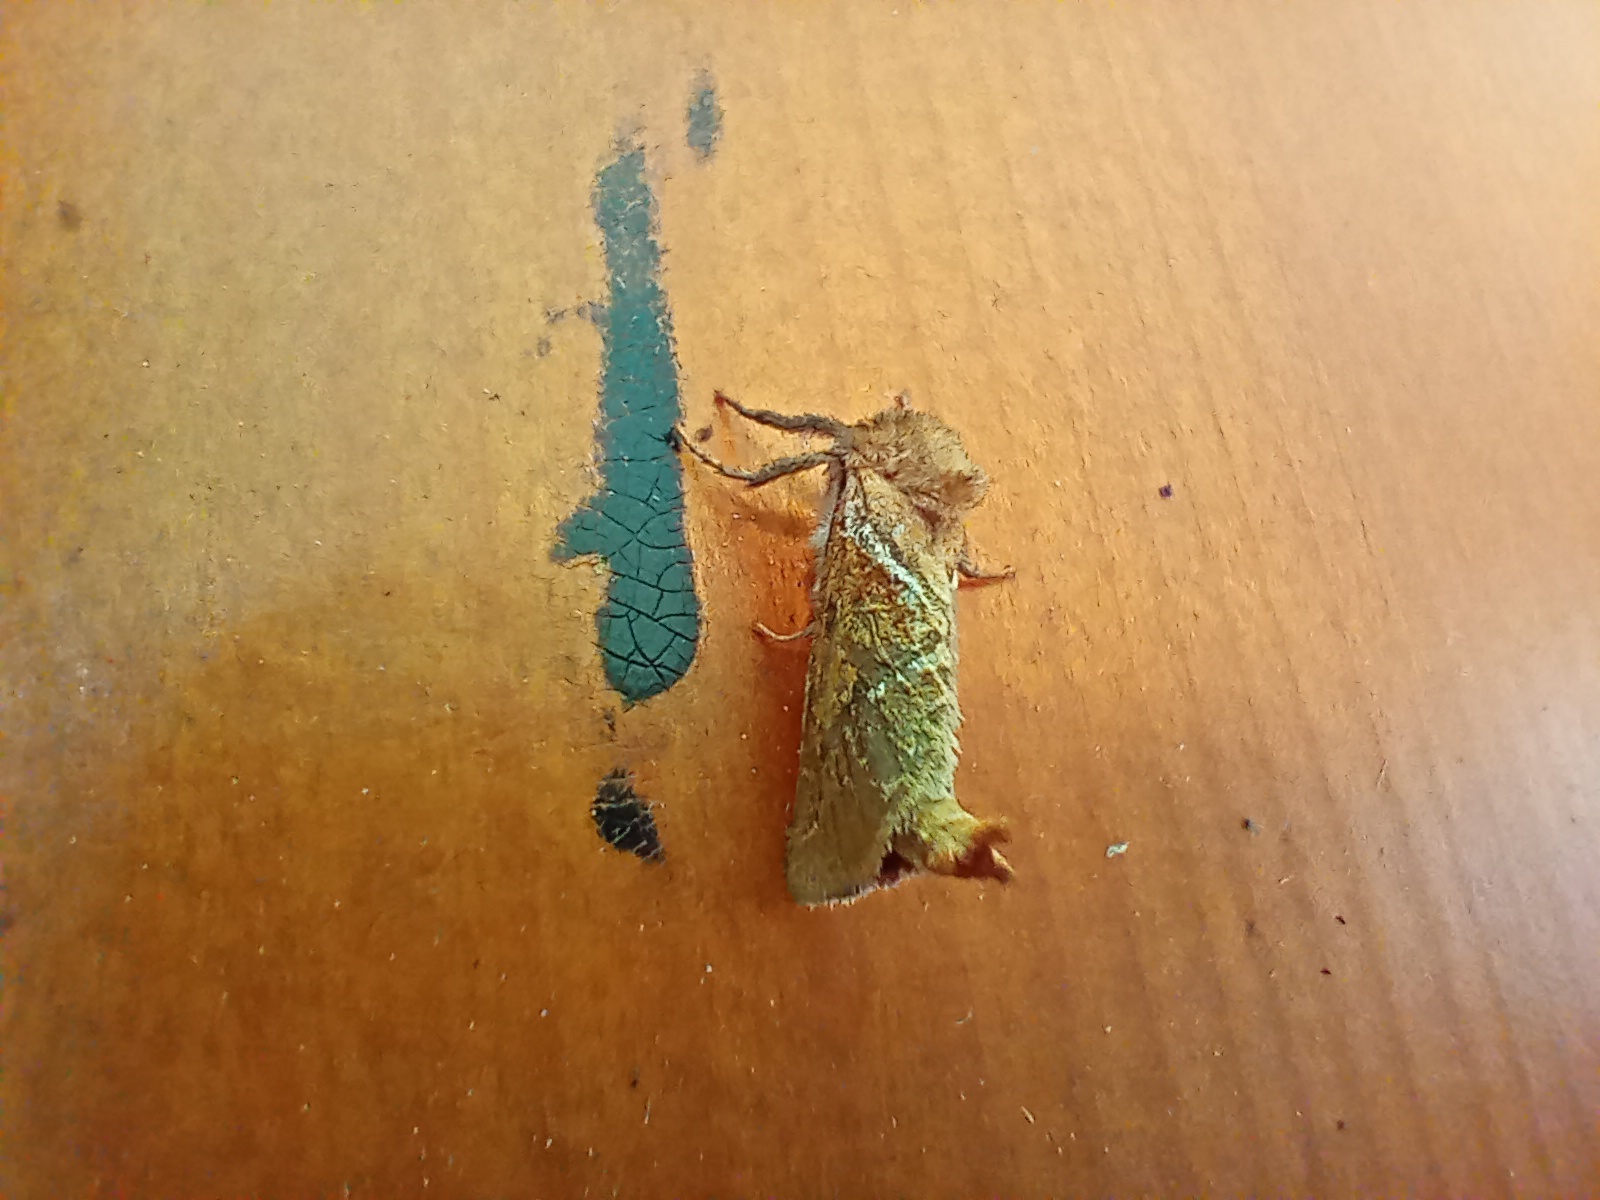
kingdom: Animalia
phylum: Arthropoda
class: Insecta
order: Lepidoptera
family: Hepialidae
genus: Triodia
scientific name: Triodia sylvina
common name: Orange swift
